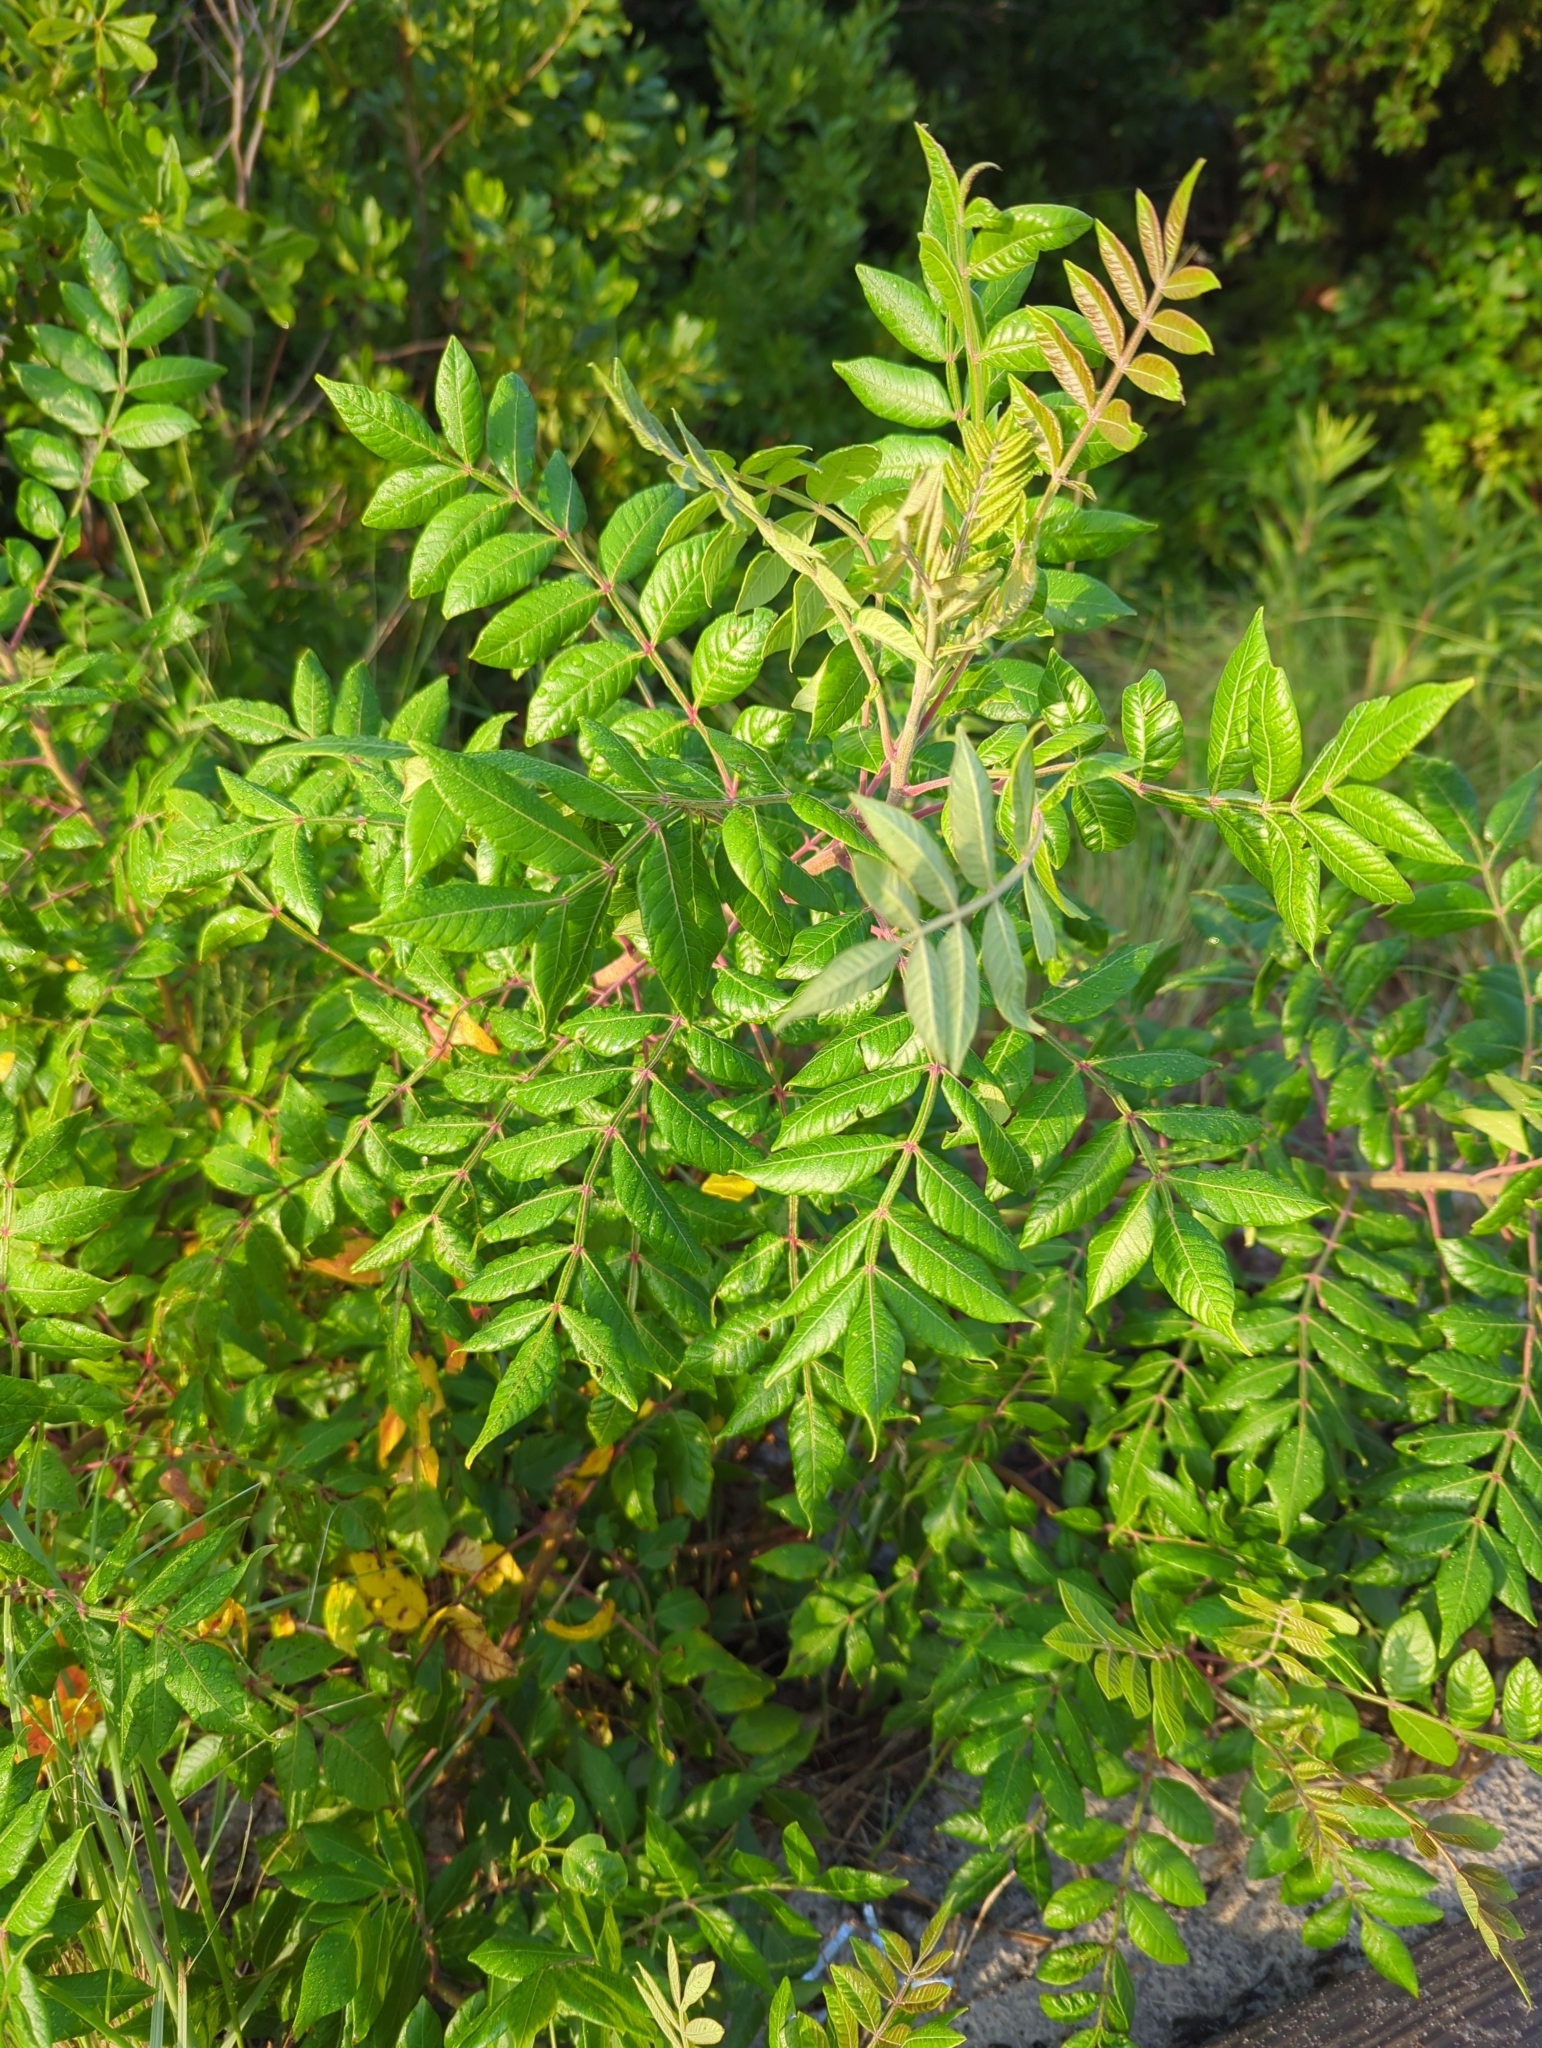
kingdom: Plantae
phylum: Tracheophyta
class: Magnoliopsida
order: Sapindales
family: Anacardiaceae
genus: Rhus
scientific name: Rhus copallina
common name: Shining sumac
